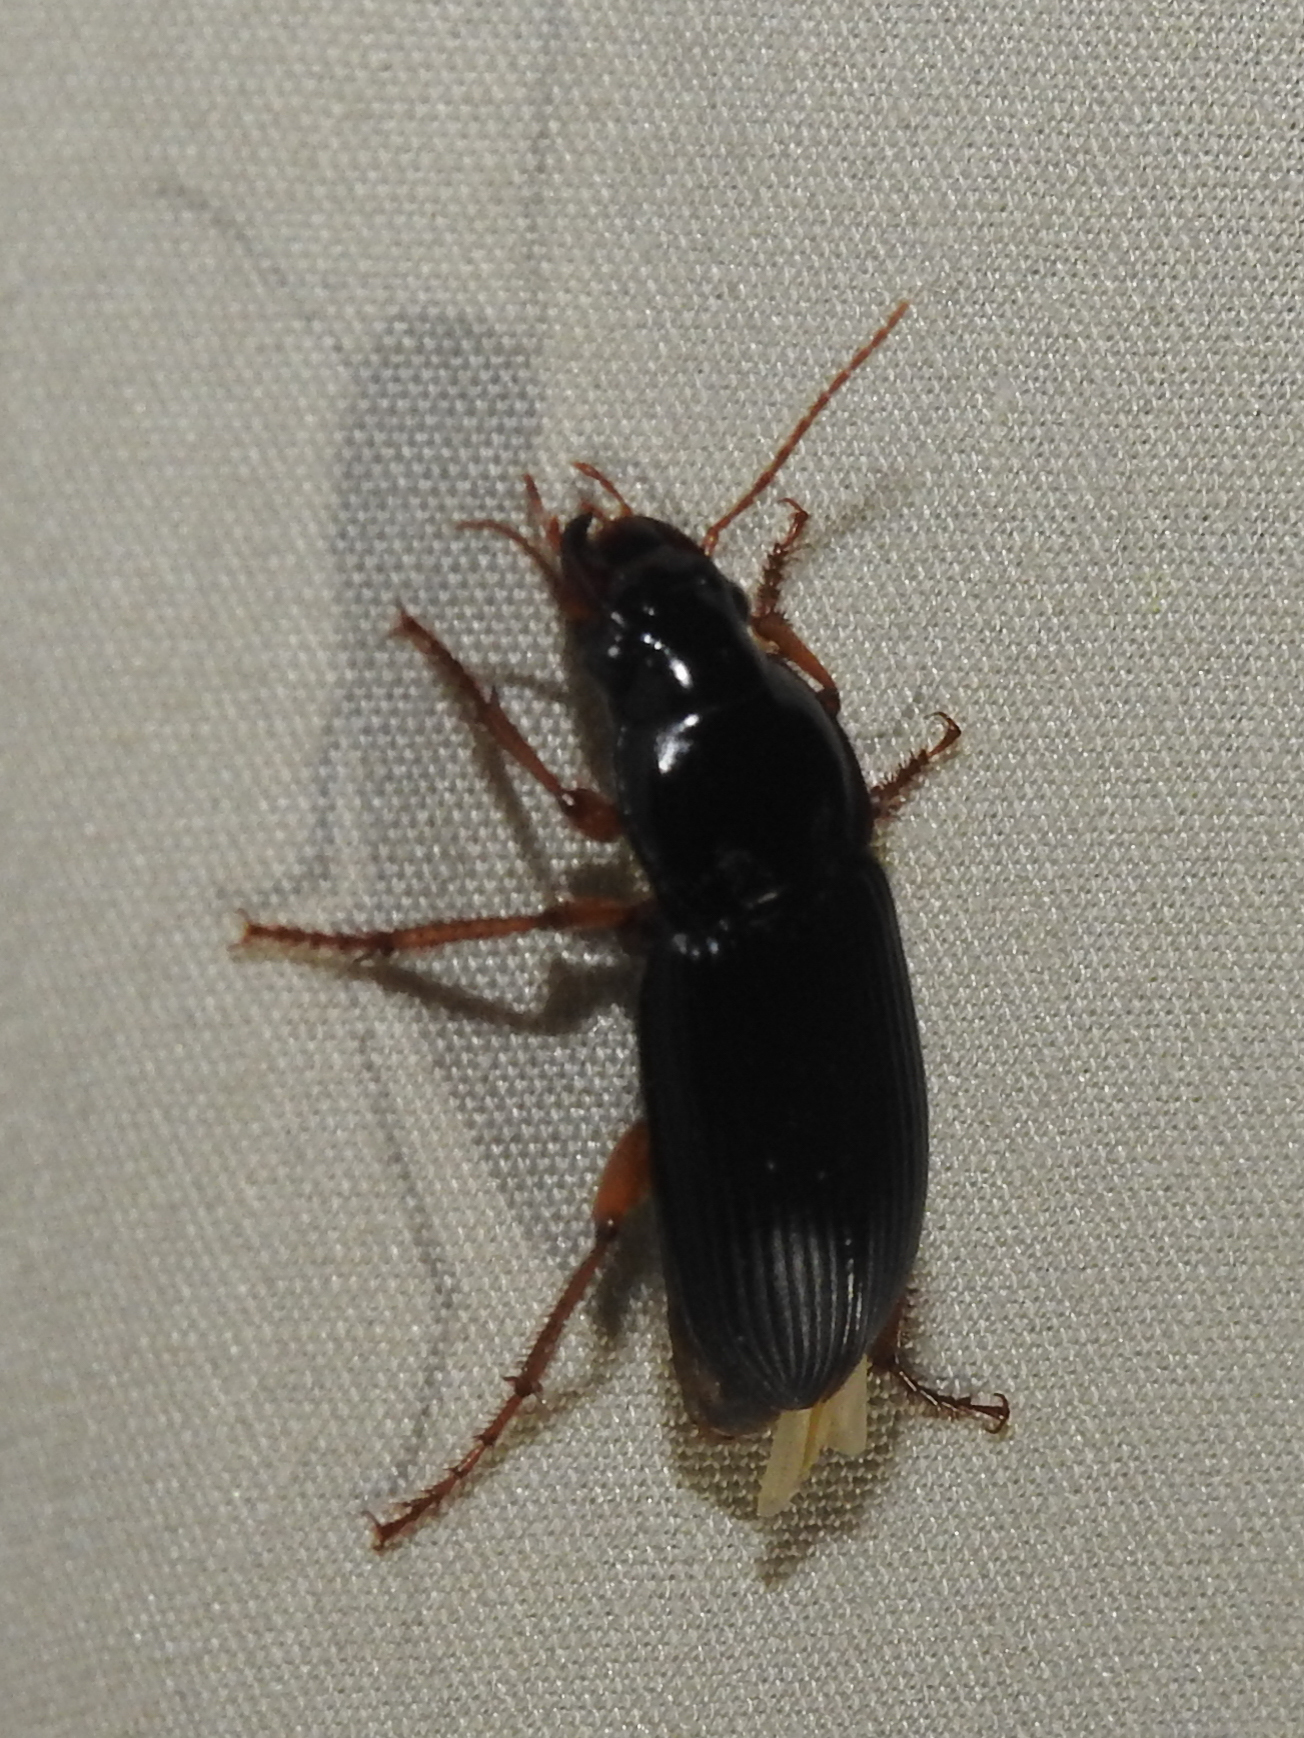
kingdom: Animalia
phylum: Arthropoda
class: Insecta
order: Coleoptera
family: Carabidae
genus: Harpalus
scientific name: Harpalus pensylvanicus
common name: Pennsylvania dingy ground beetle
